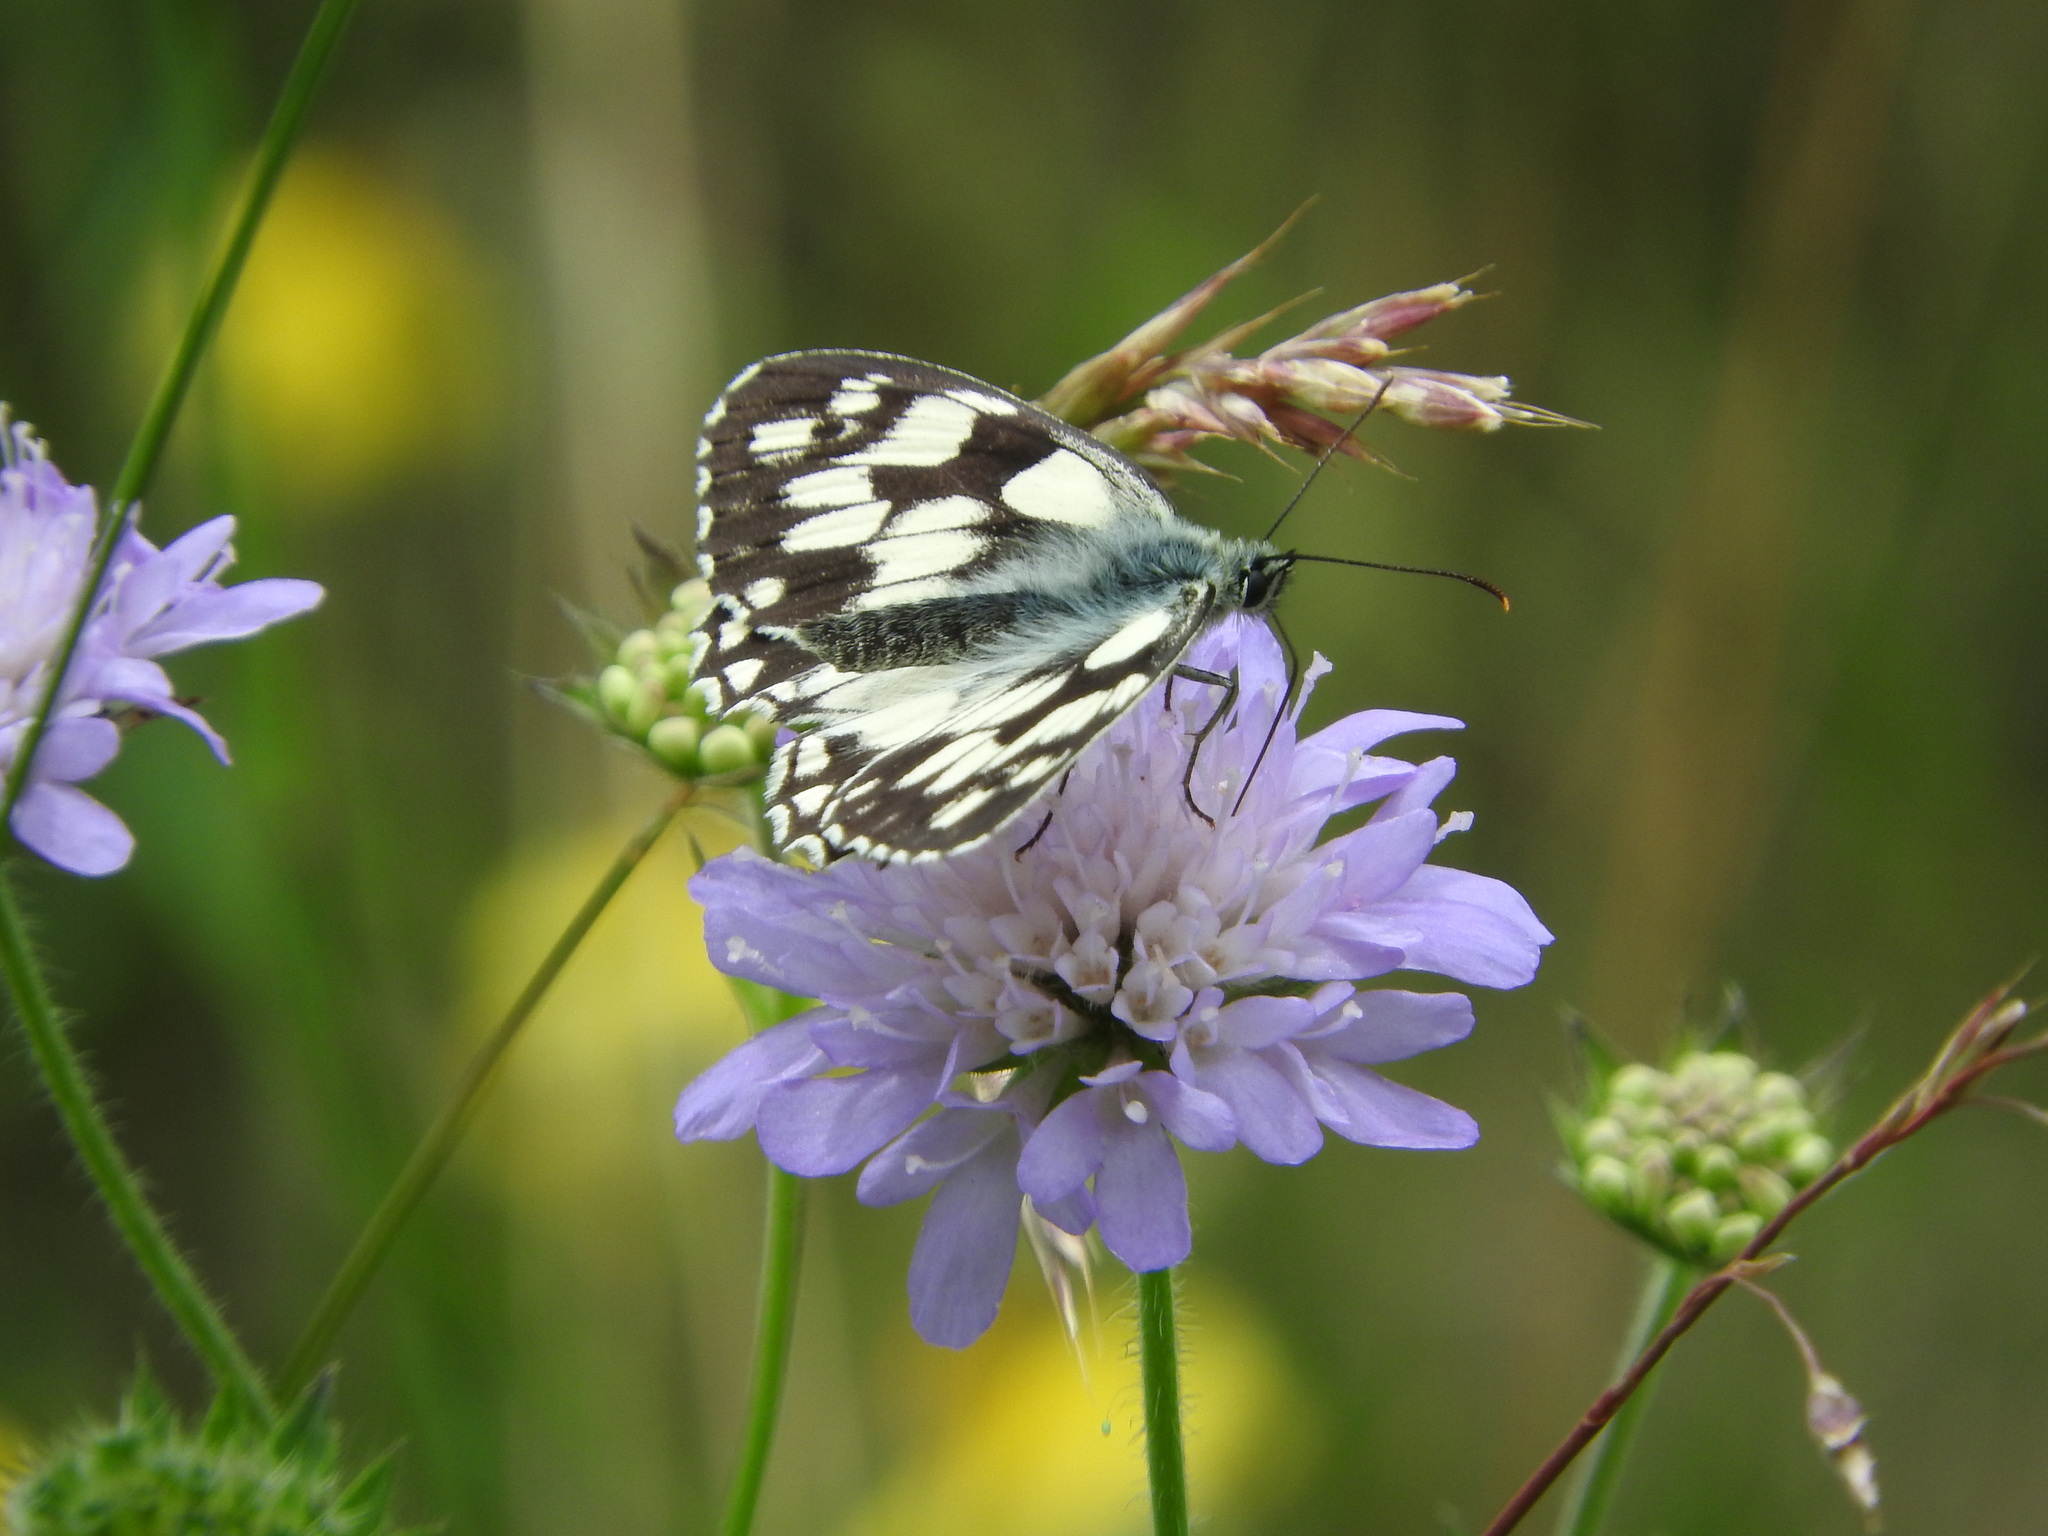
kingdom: Animalia
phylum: Arthropoda
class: Insecta
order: Lepidoptera
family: Nymphalidae
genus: Melanargia
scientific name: Melanargia galathea
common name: Marbled white
